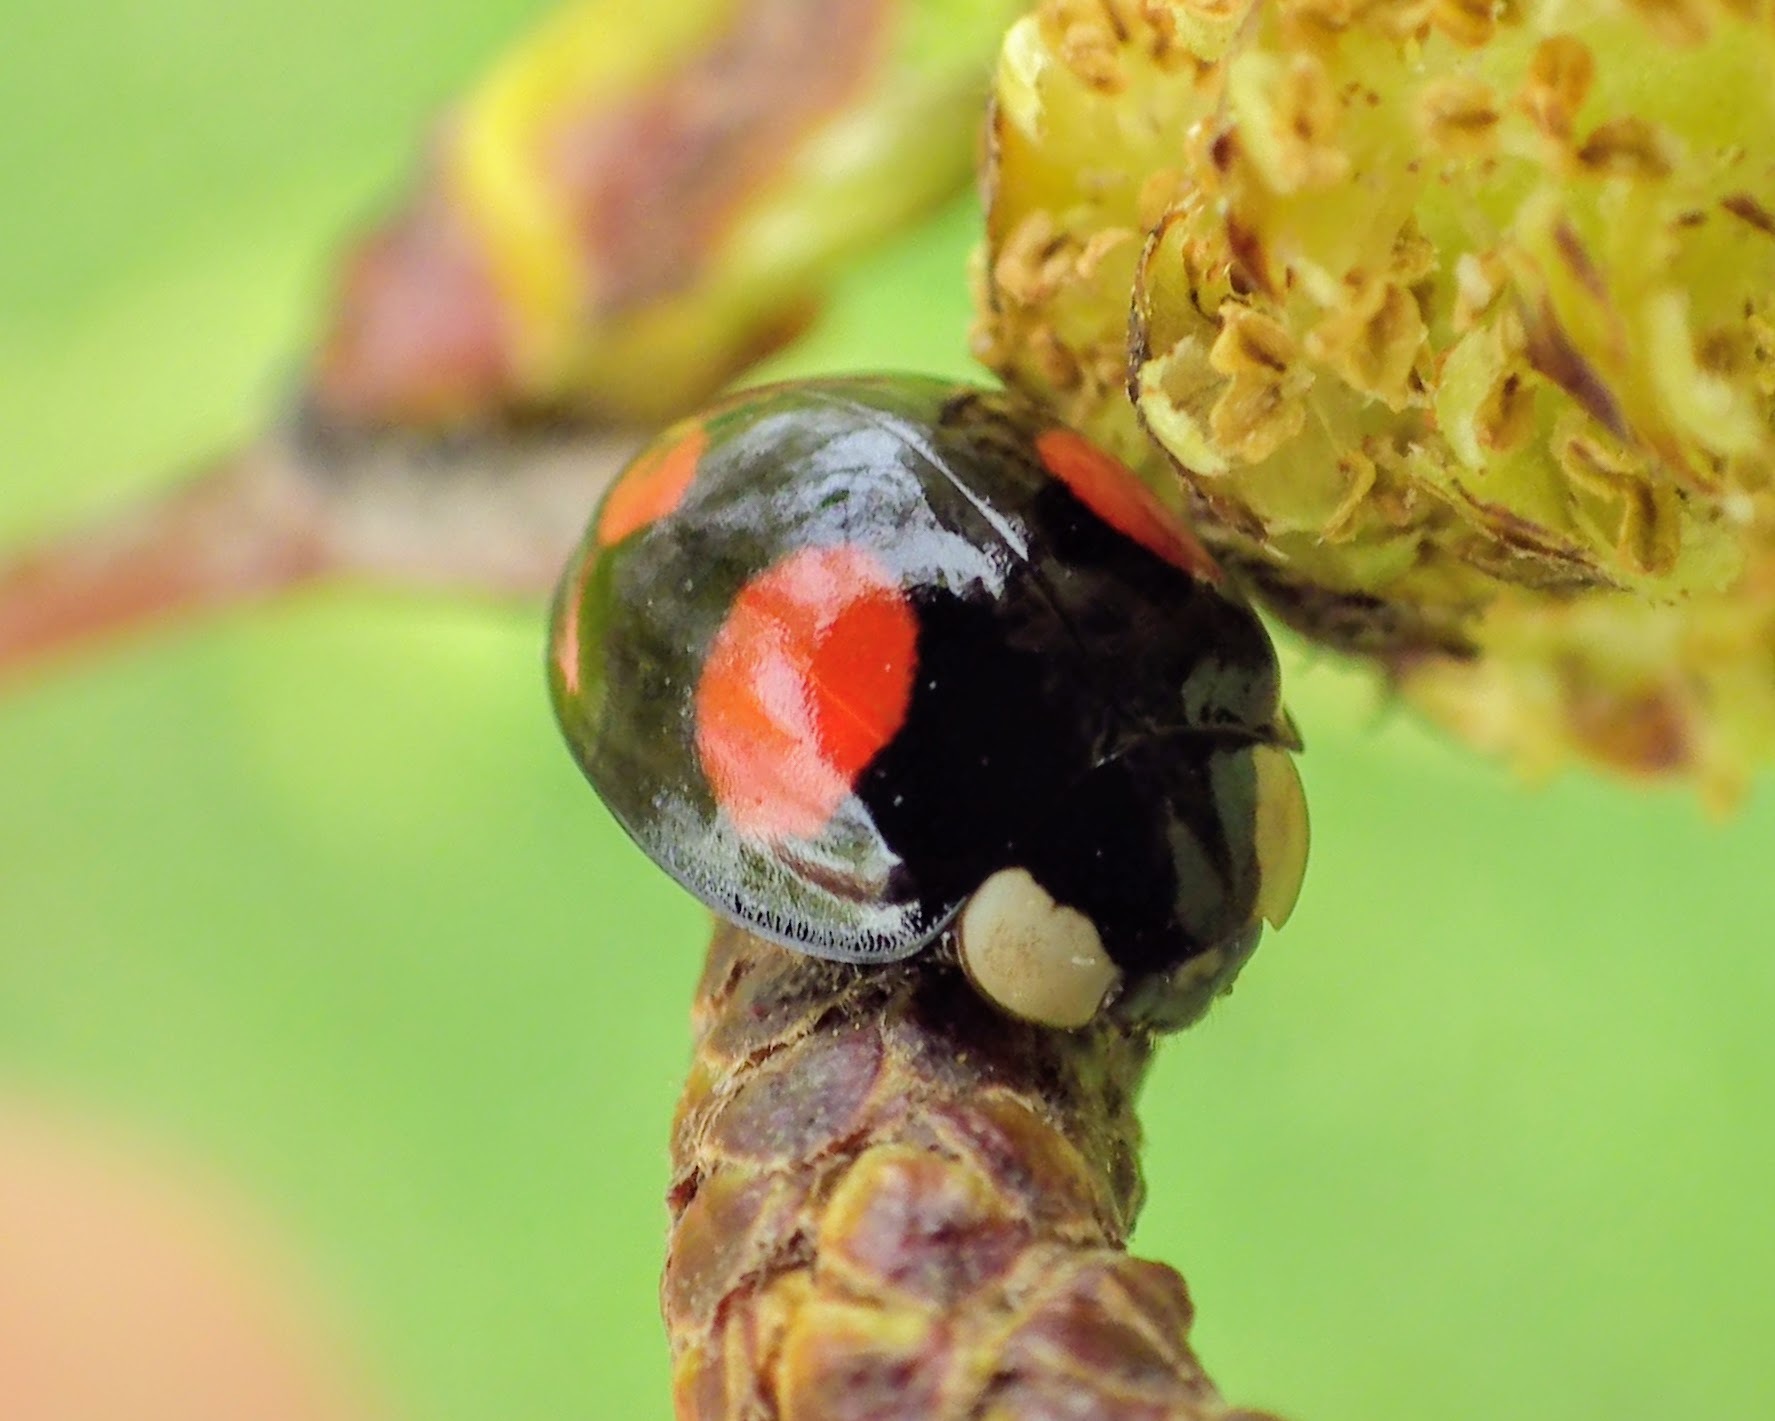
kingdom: Animalia
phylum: Arthropoda
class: Insecta
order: Coleoptera
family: Coccinellidae
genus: Harmonia
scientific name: Harmonia axyridis
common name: Harlequin ladybird
